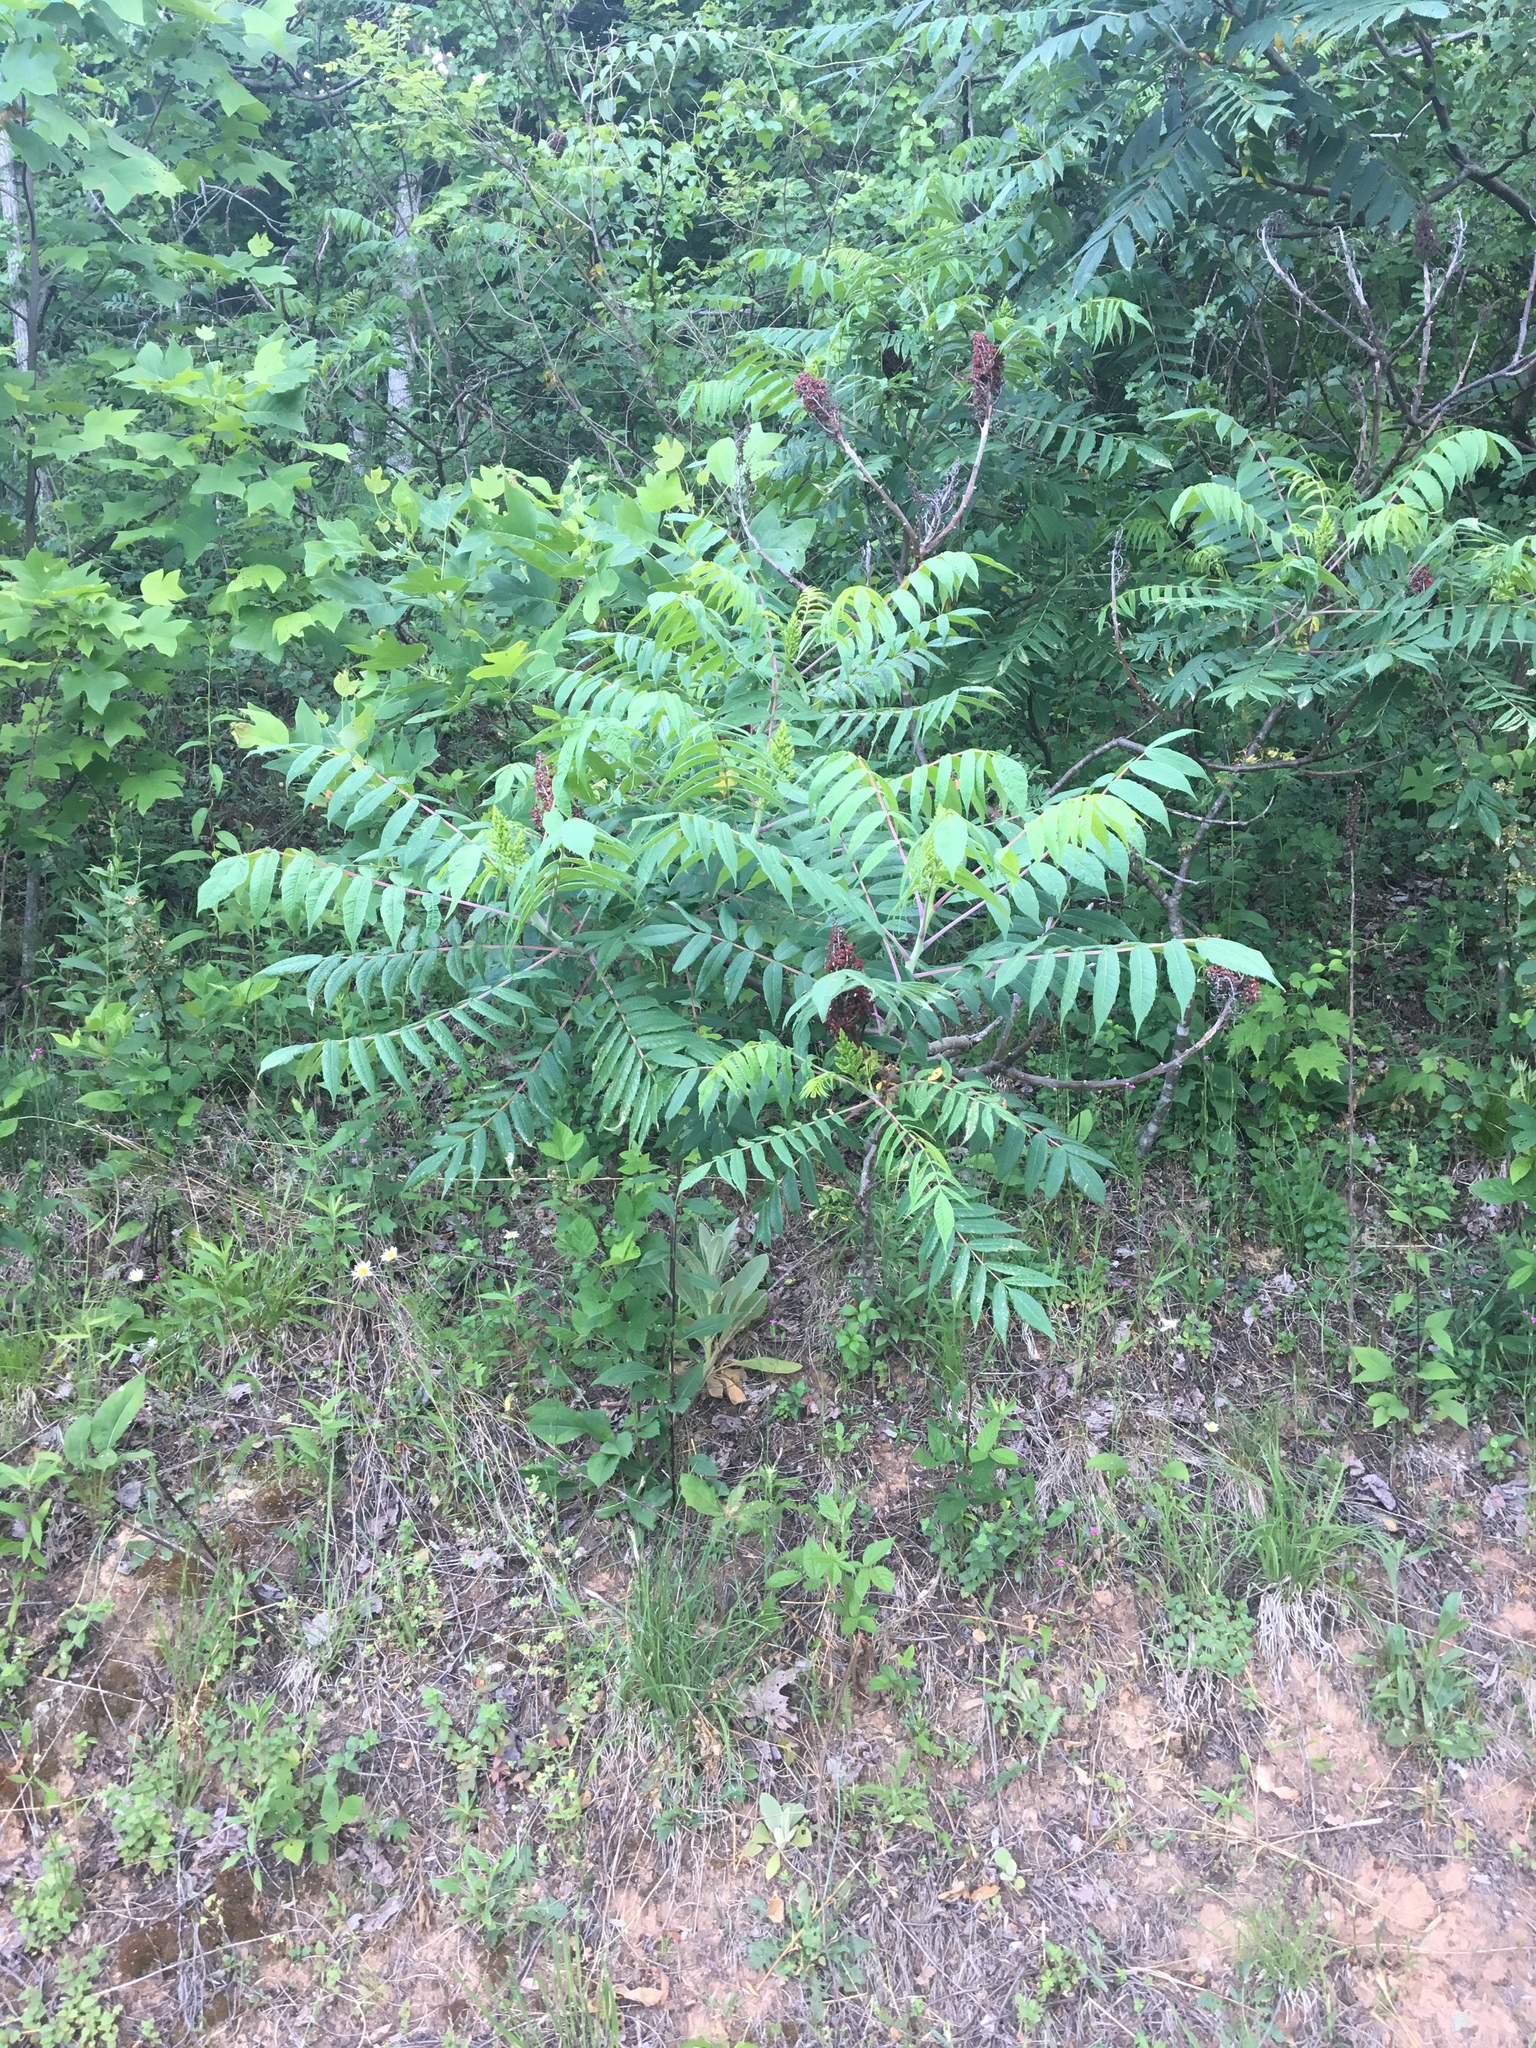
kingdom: Plantae
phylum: Tracheophyta
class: Magnoliopsida
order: Sapindales
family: Anacardiaceae
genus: Rhus
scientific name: Rhus glabra
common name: Scarlet sumac
